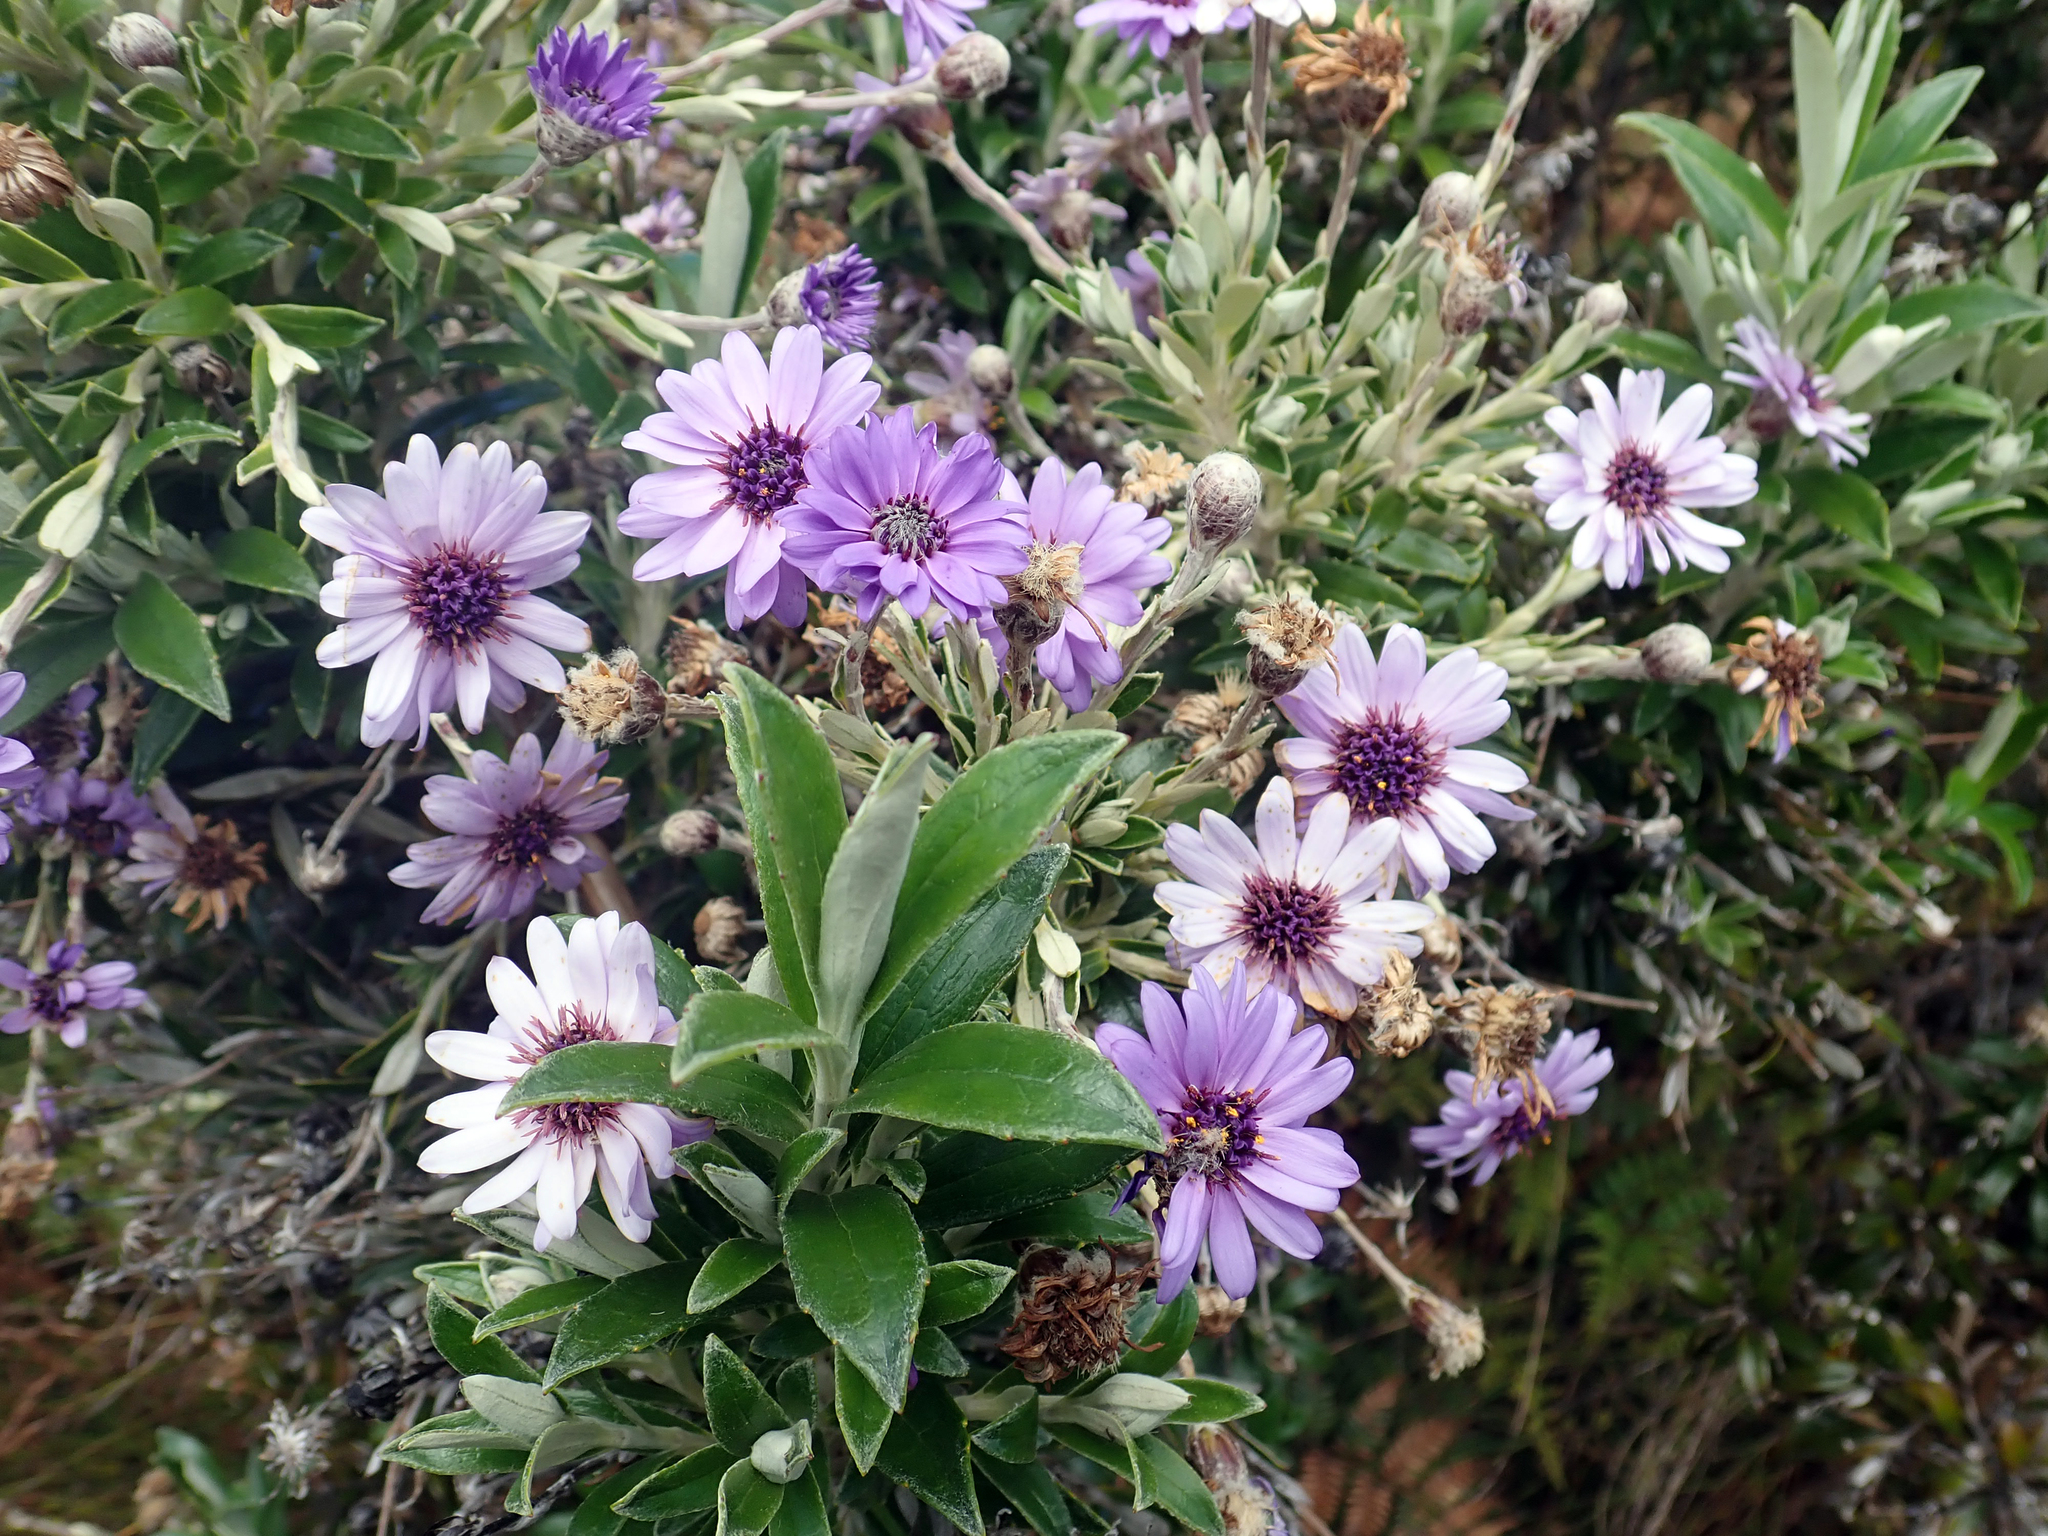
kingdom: Plantae
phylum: Tracheophyta
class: Magnoliopsida
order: Asterales
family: Asteraceae
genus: Macrolearia
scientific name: Macrolearia semidentata
